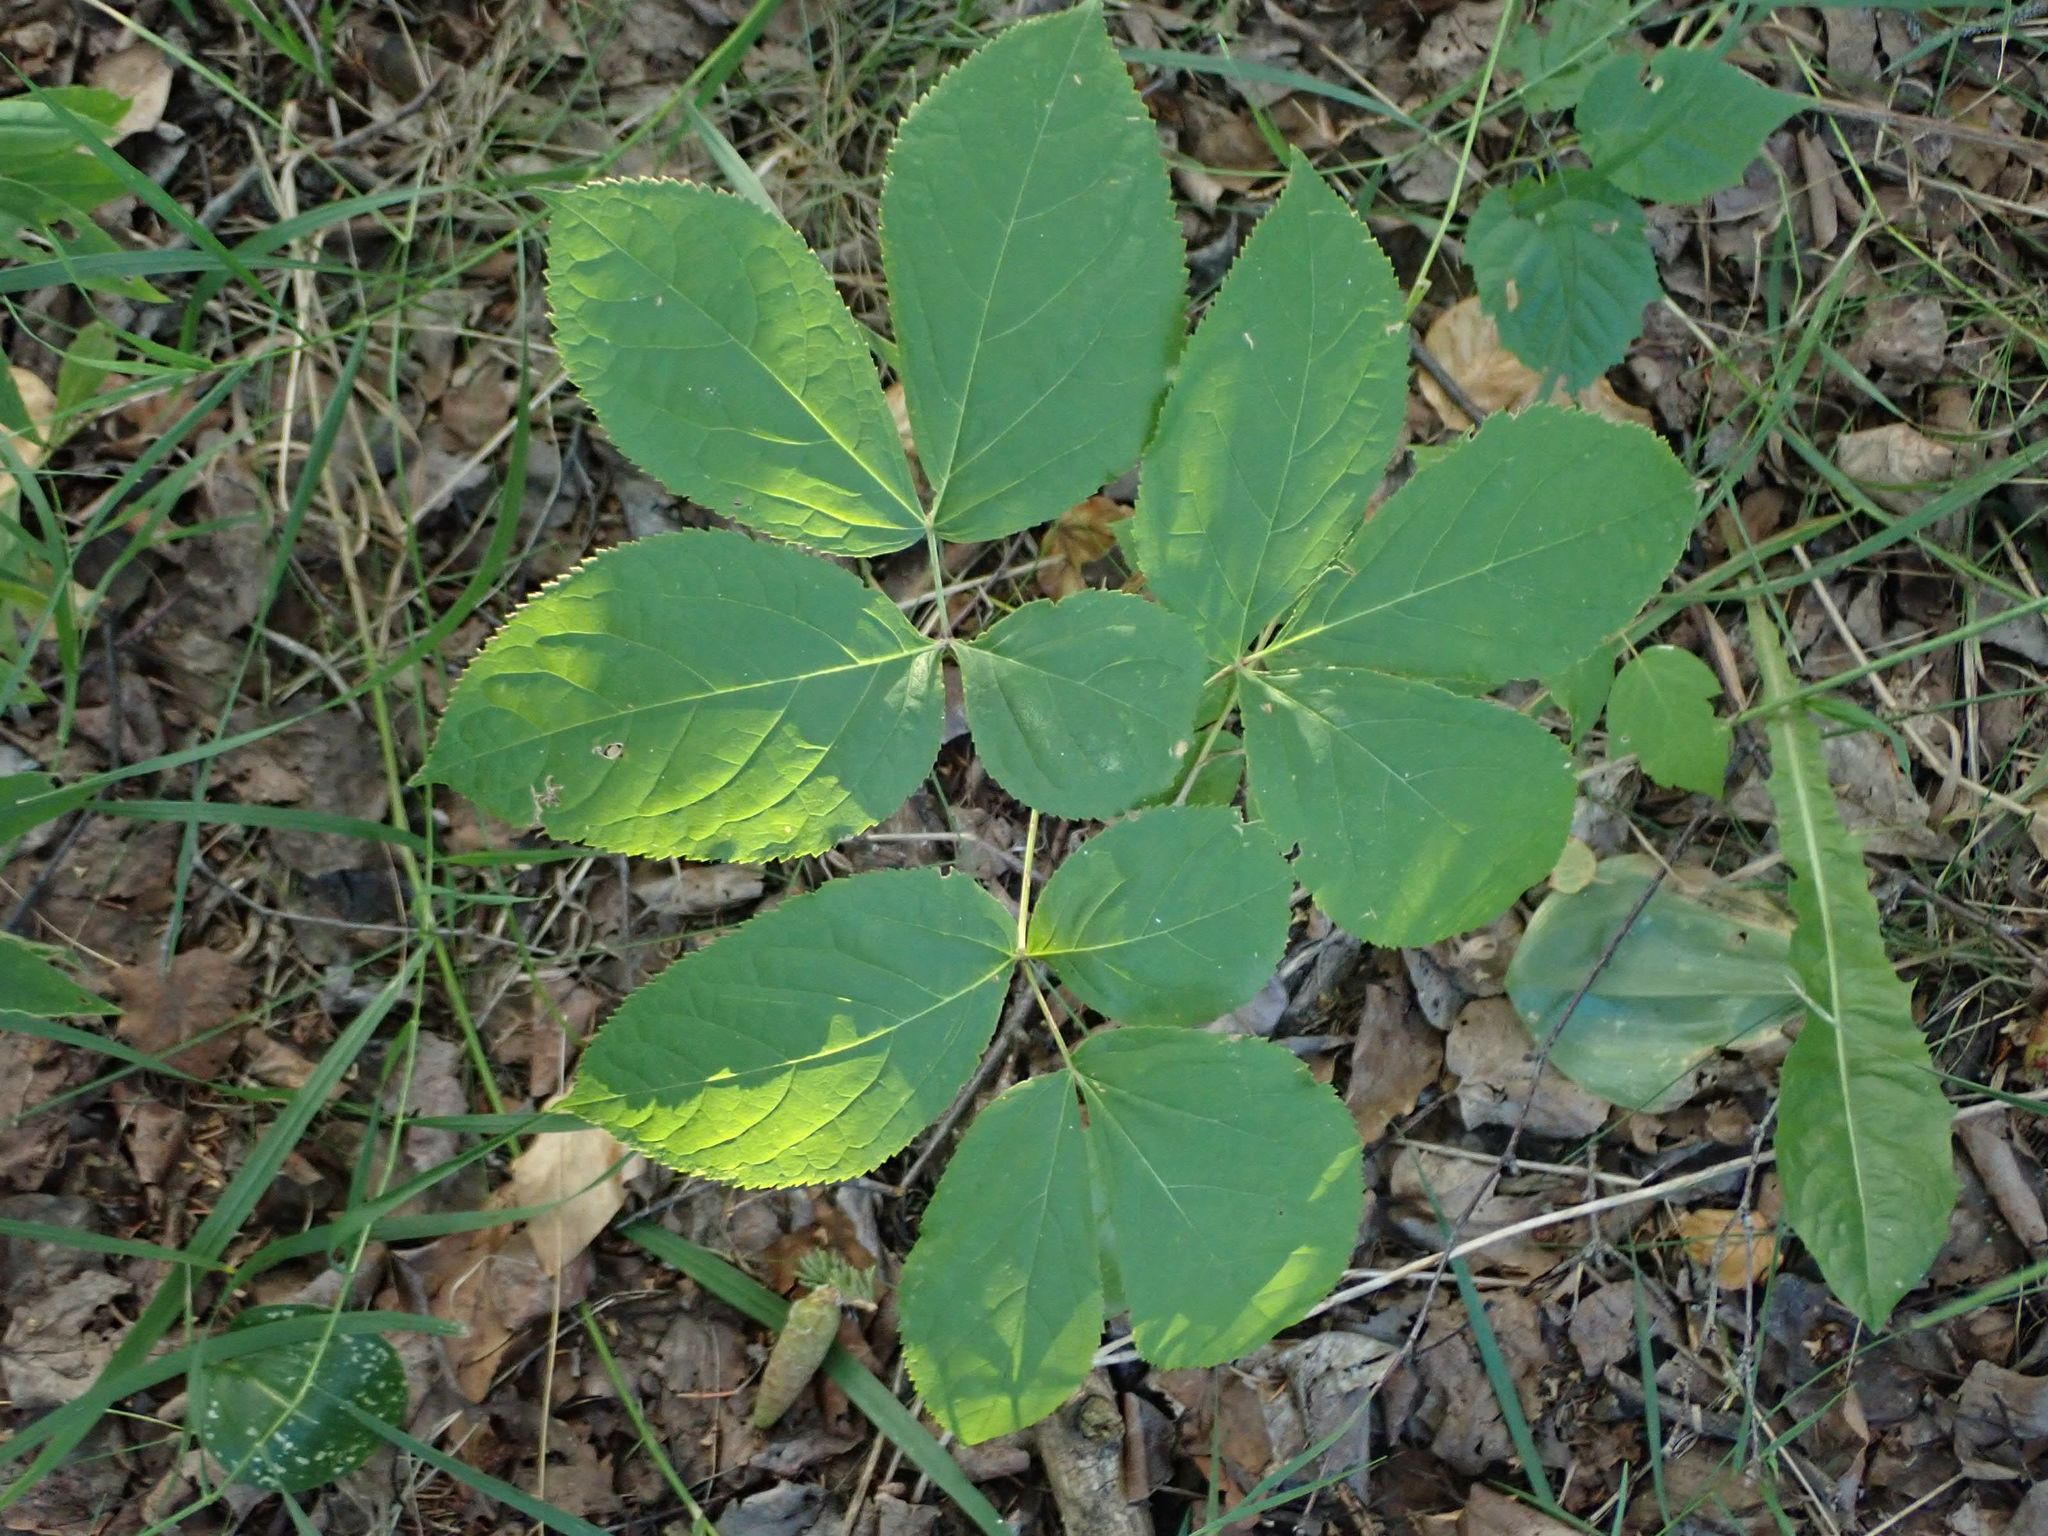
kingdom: Plantae
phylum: Tracheophyta
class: Magnoliopsida
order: Apiales
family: Araliaceae
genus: Aralia
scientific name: Aralia nudicaulis
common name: Wild sarsaparilla
